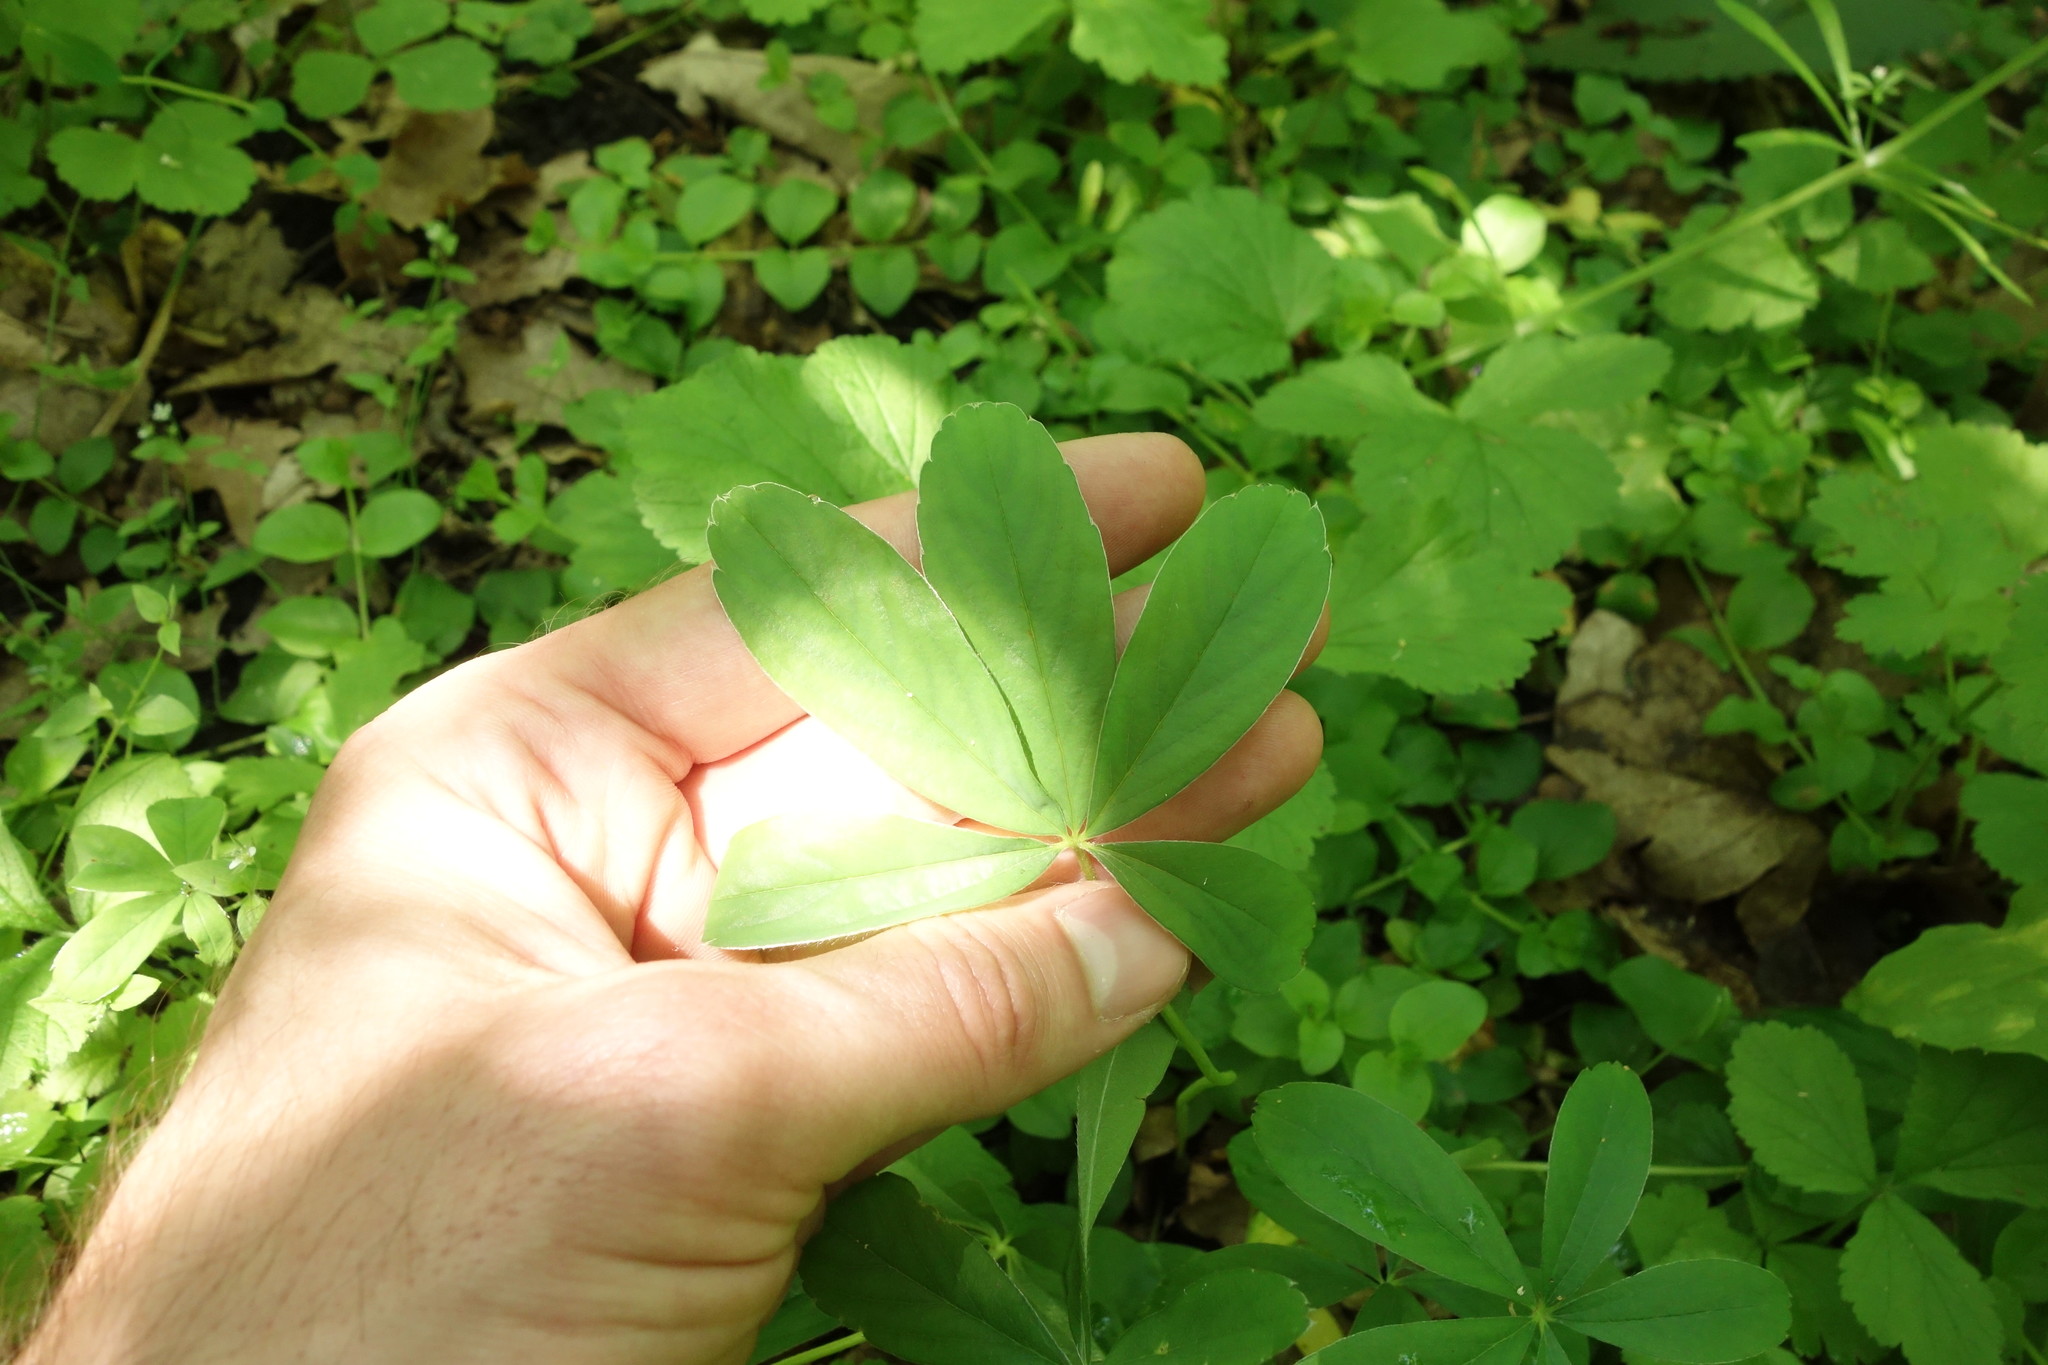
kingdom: Plantae
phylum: Tracheophyta
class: Magnoliopsida
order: Rosales
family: Rosaceae
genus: Potentilla
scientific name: Potentilla alba
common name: White cinquefoil
